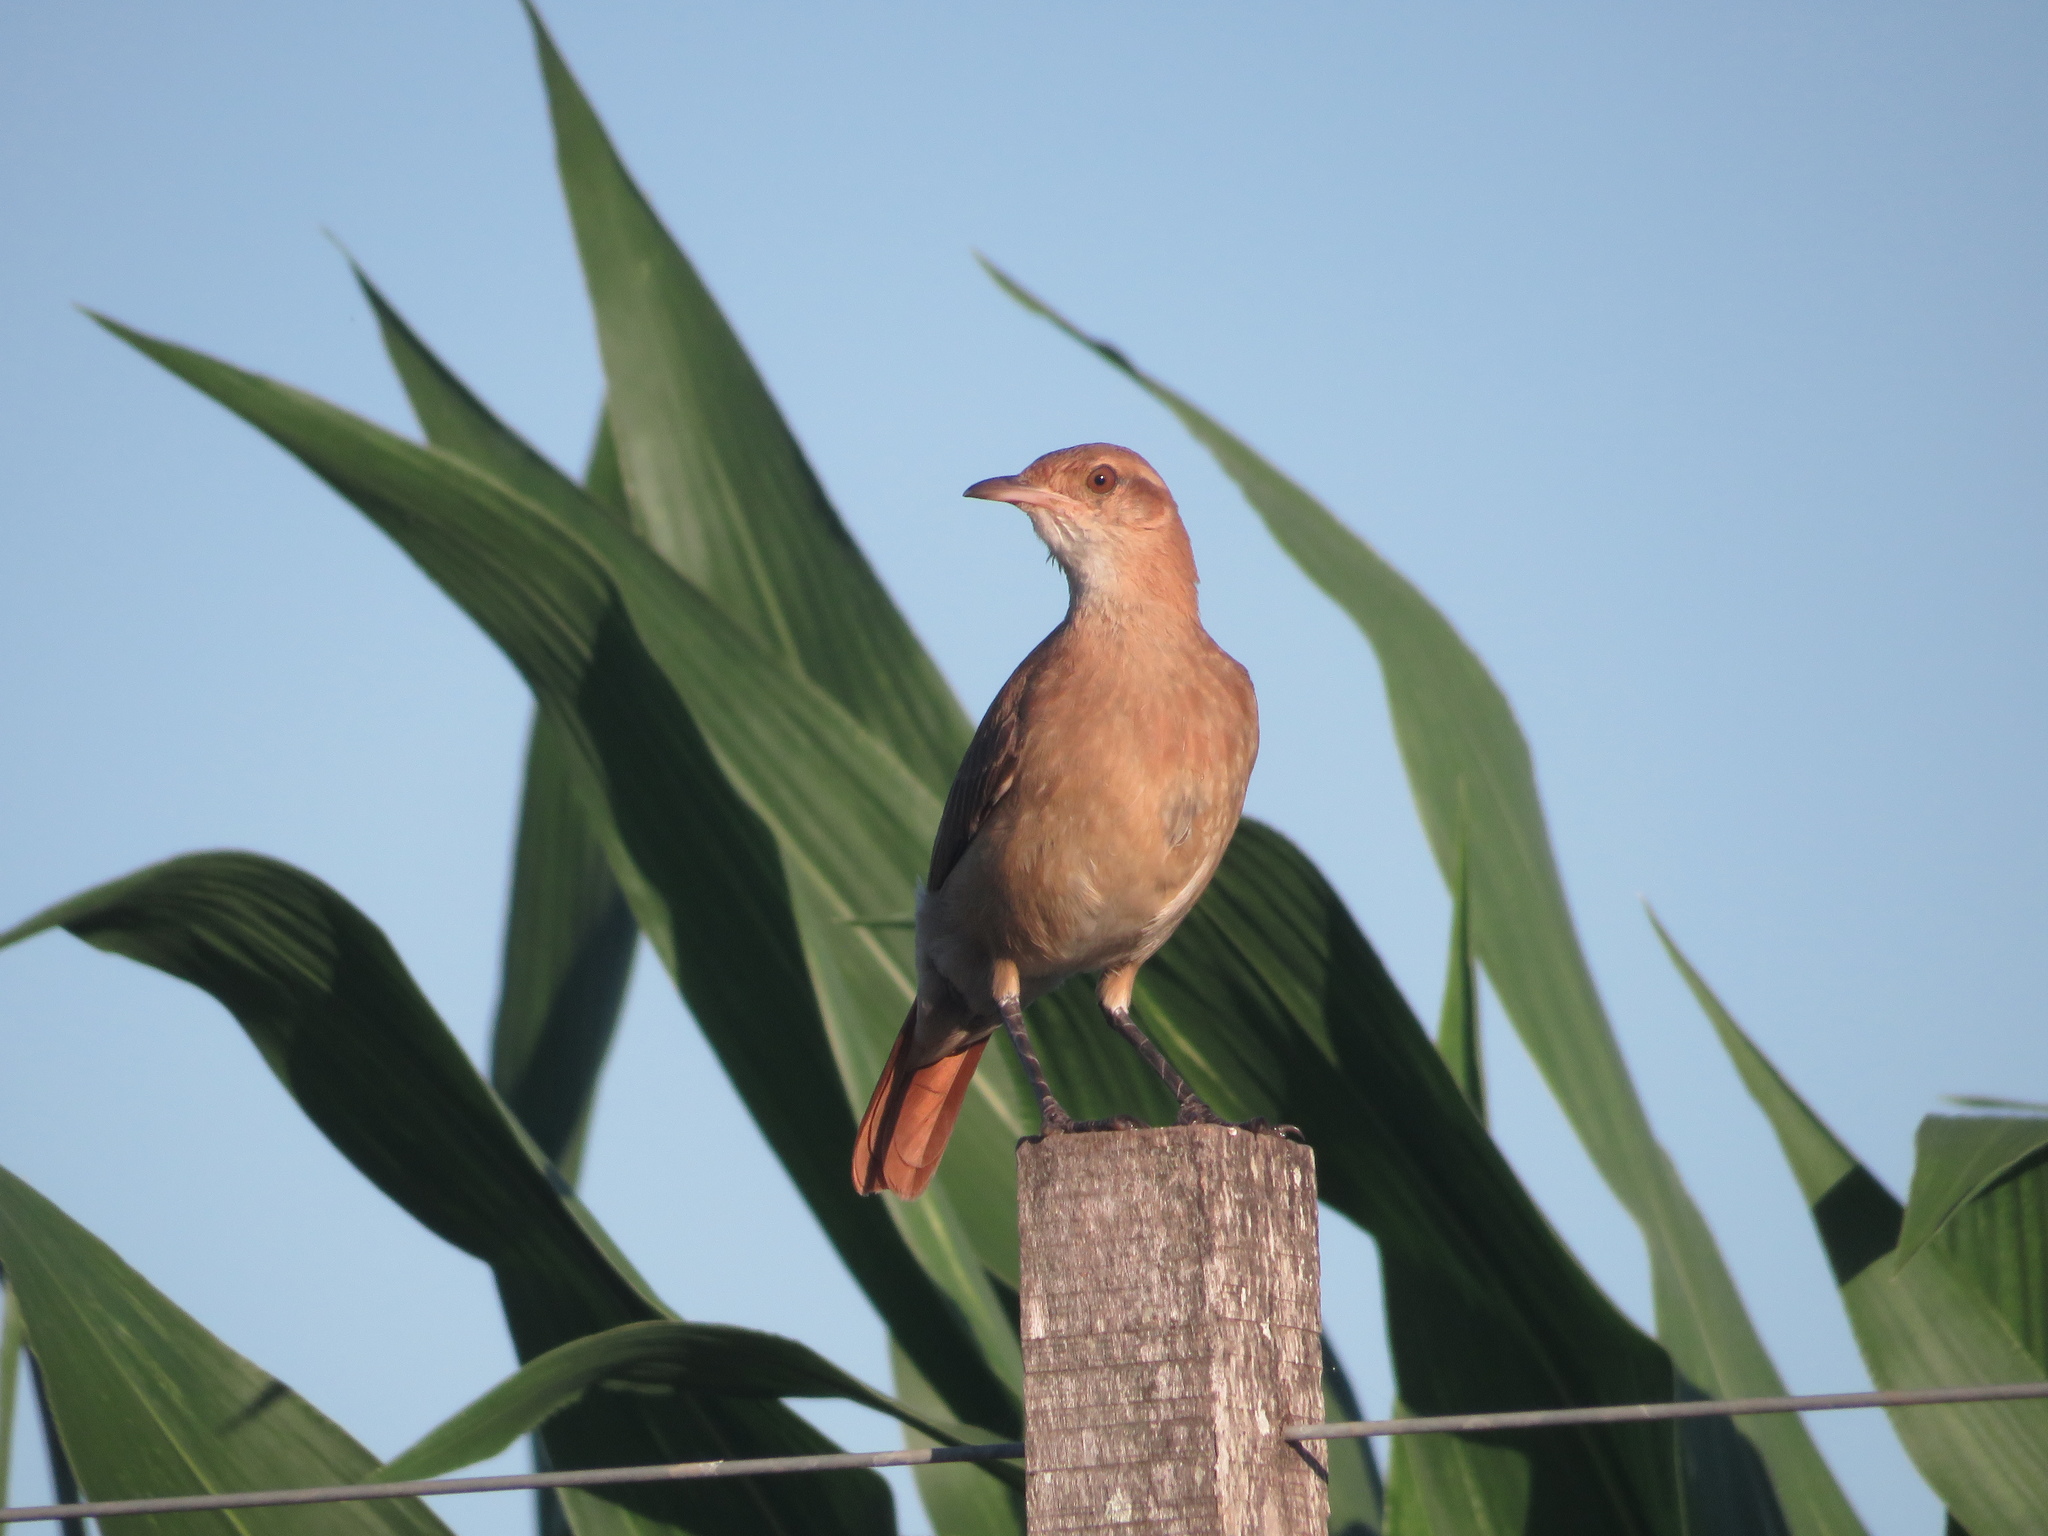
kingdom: Animalia
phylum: Chordata
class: Aves
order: Passeriformes
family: Furnariidae
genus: Furnarius
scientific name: Furnarius rufus
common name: Rufous hornero
